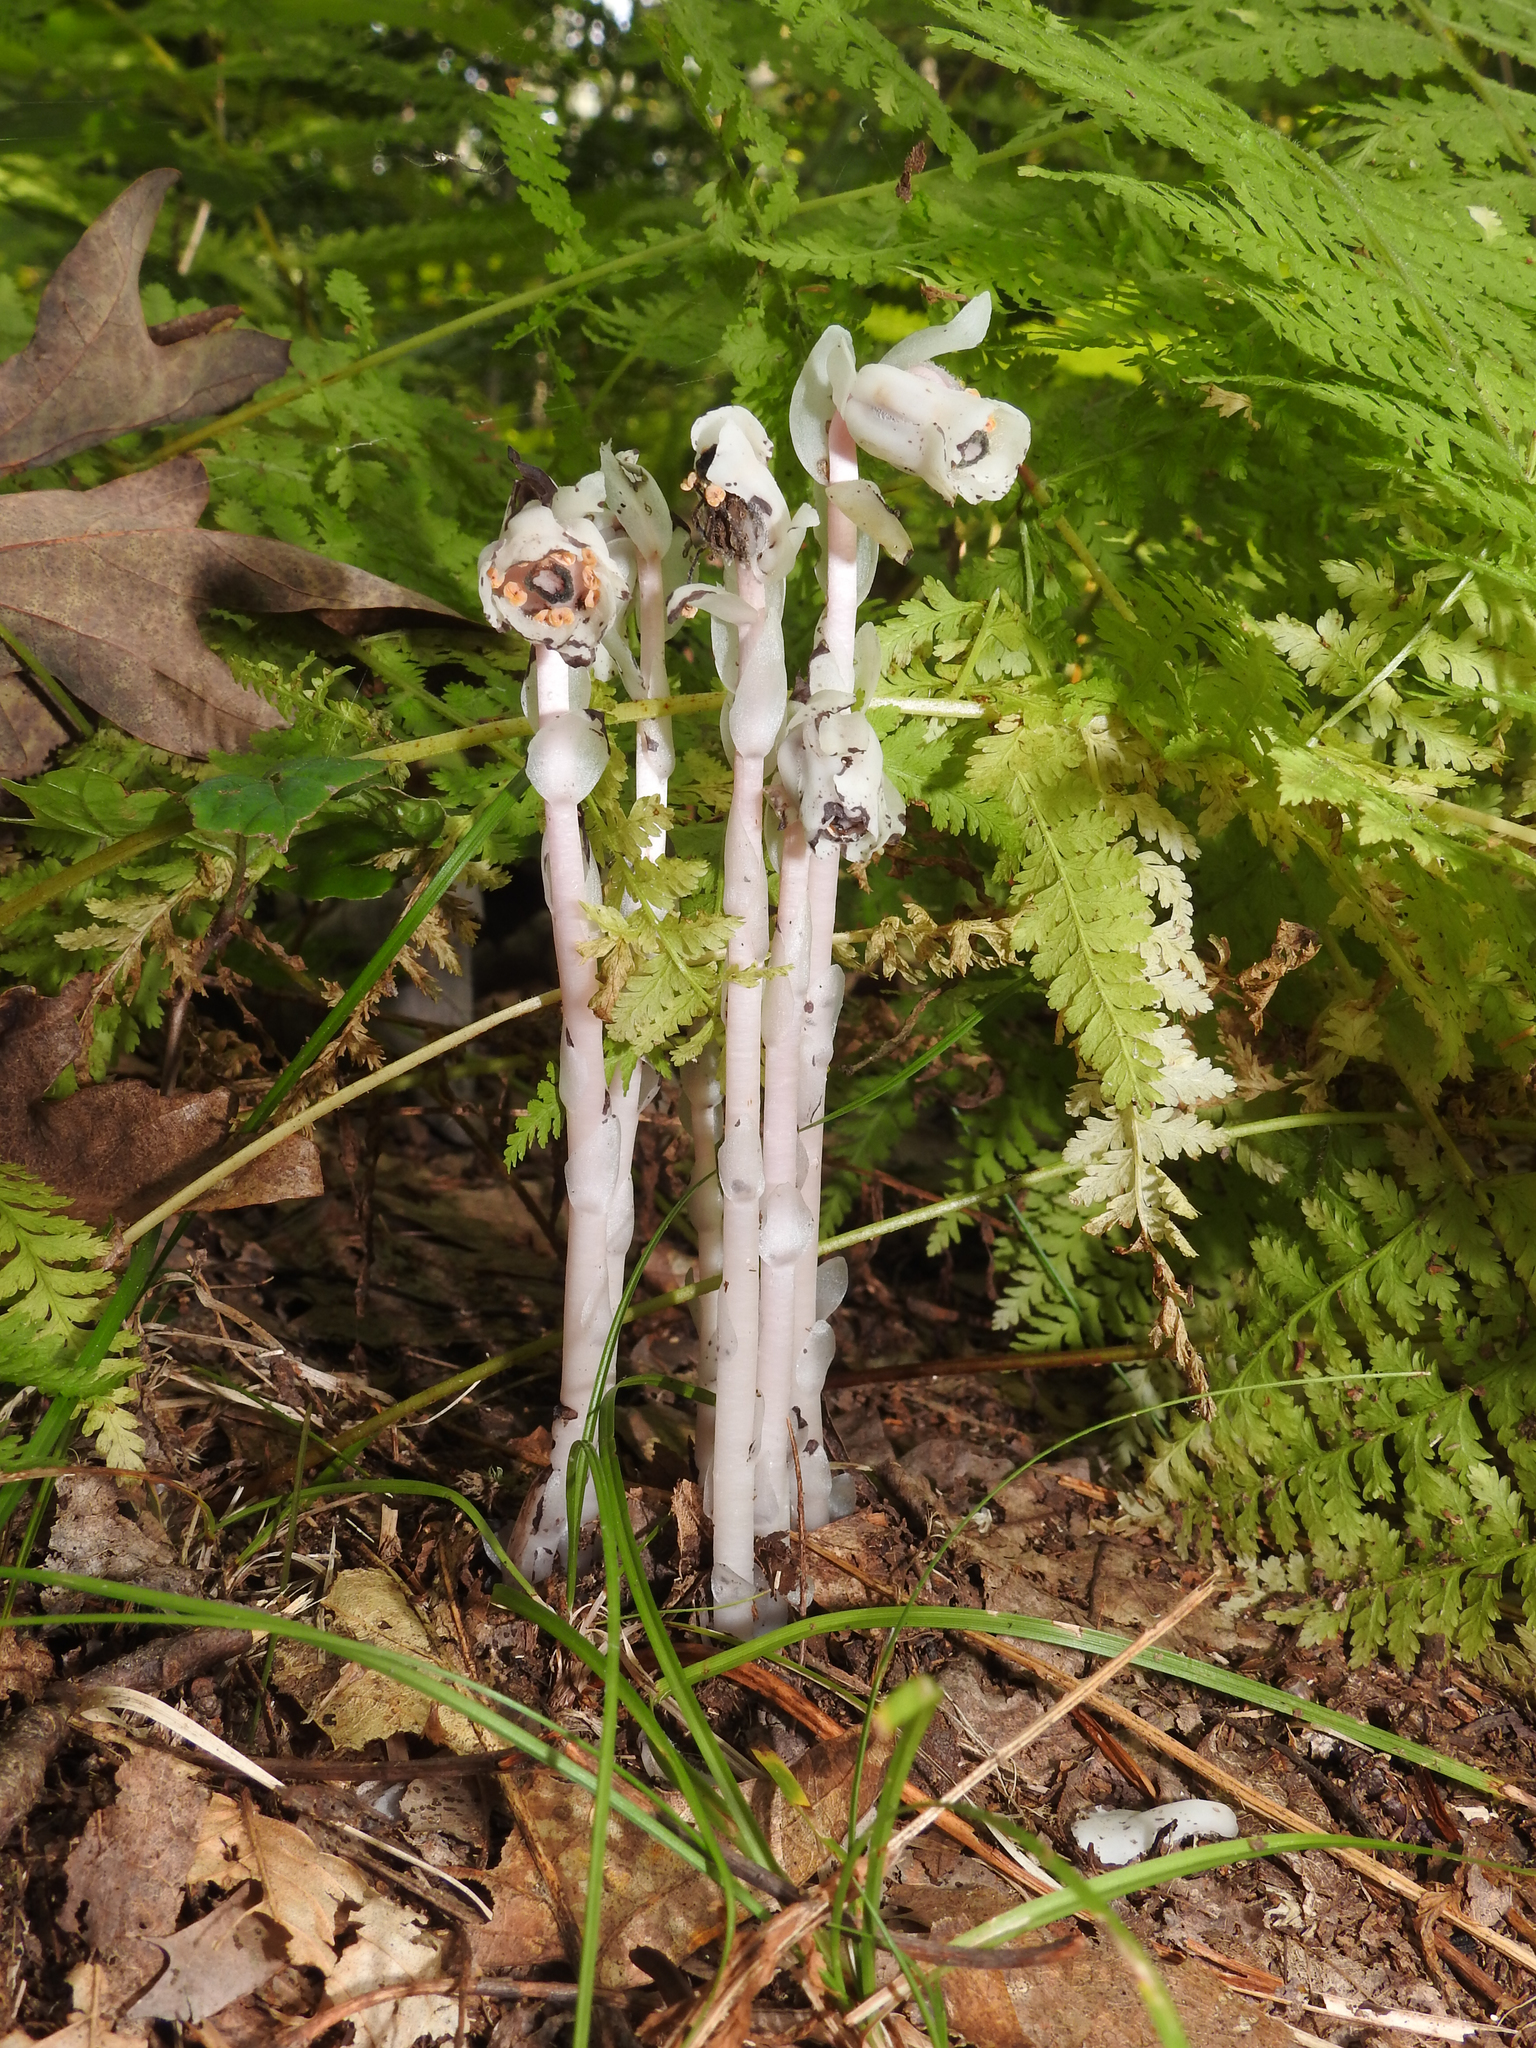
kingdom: Plantae
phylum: Tracheophyta
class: Magnoliopsida
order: Ericales
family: Ericaceae
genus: Monotropa
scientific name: Monotropa uniflora
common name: Convulsion root
